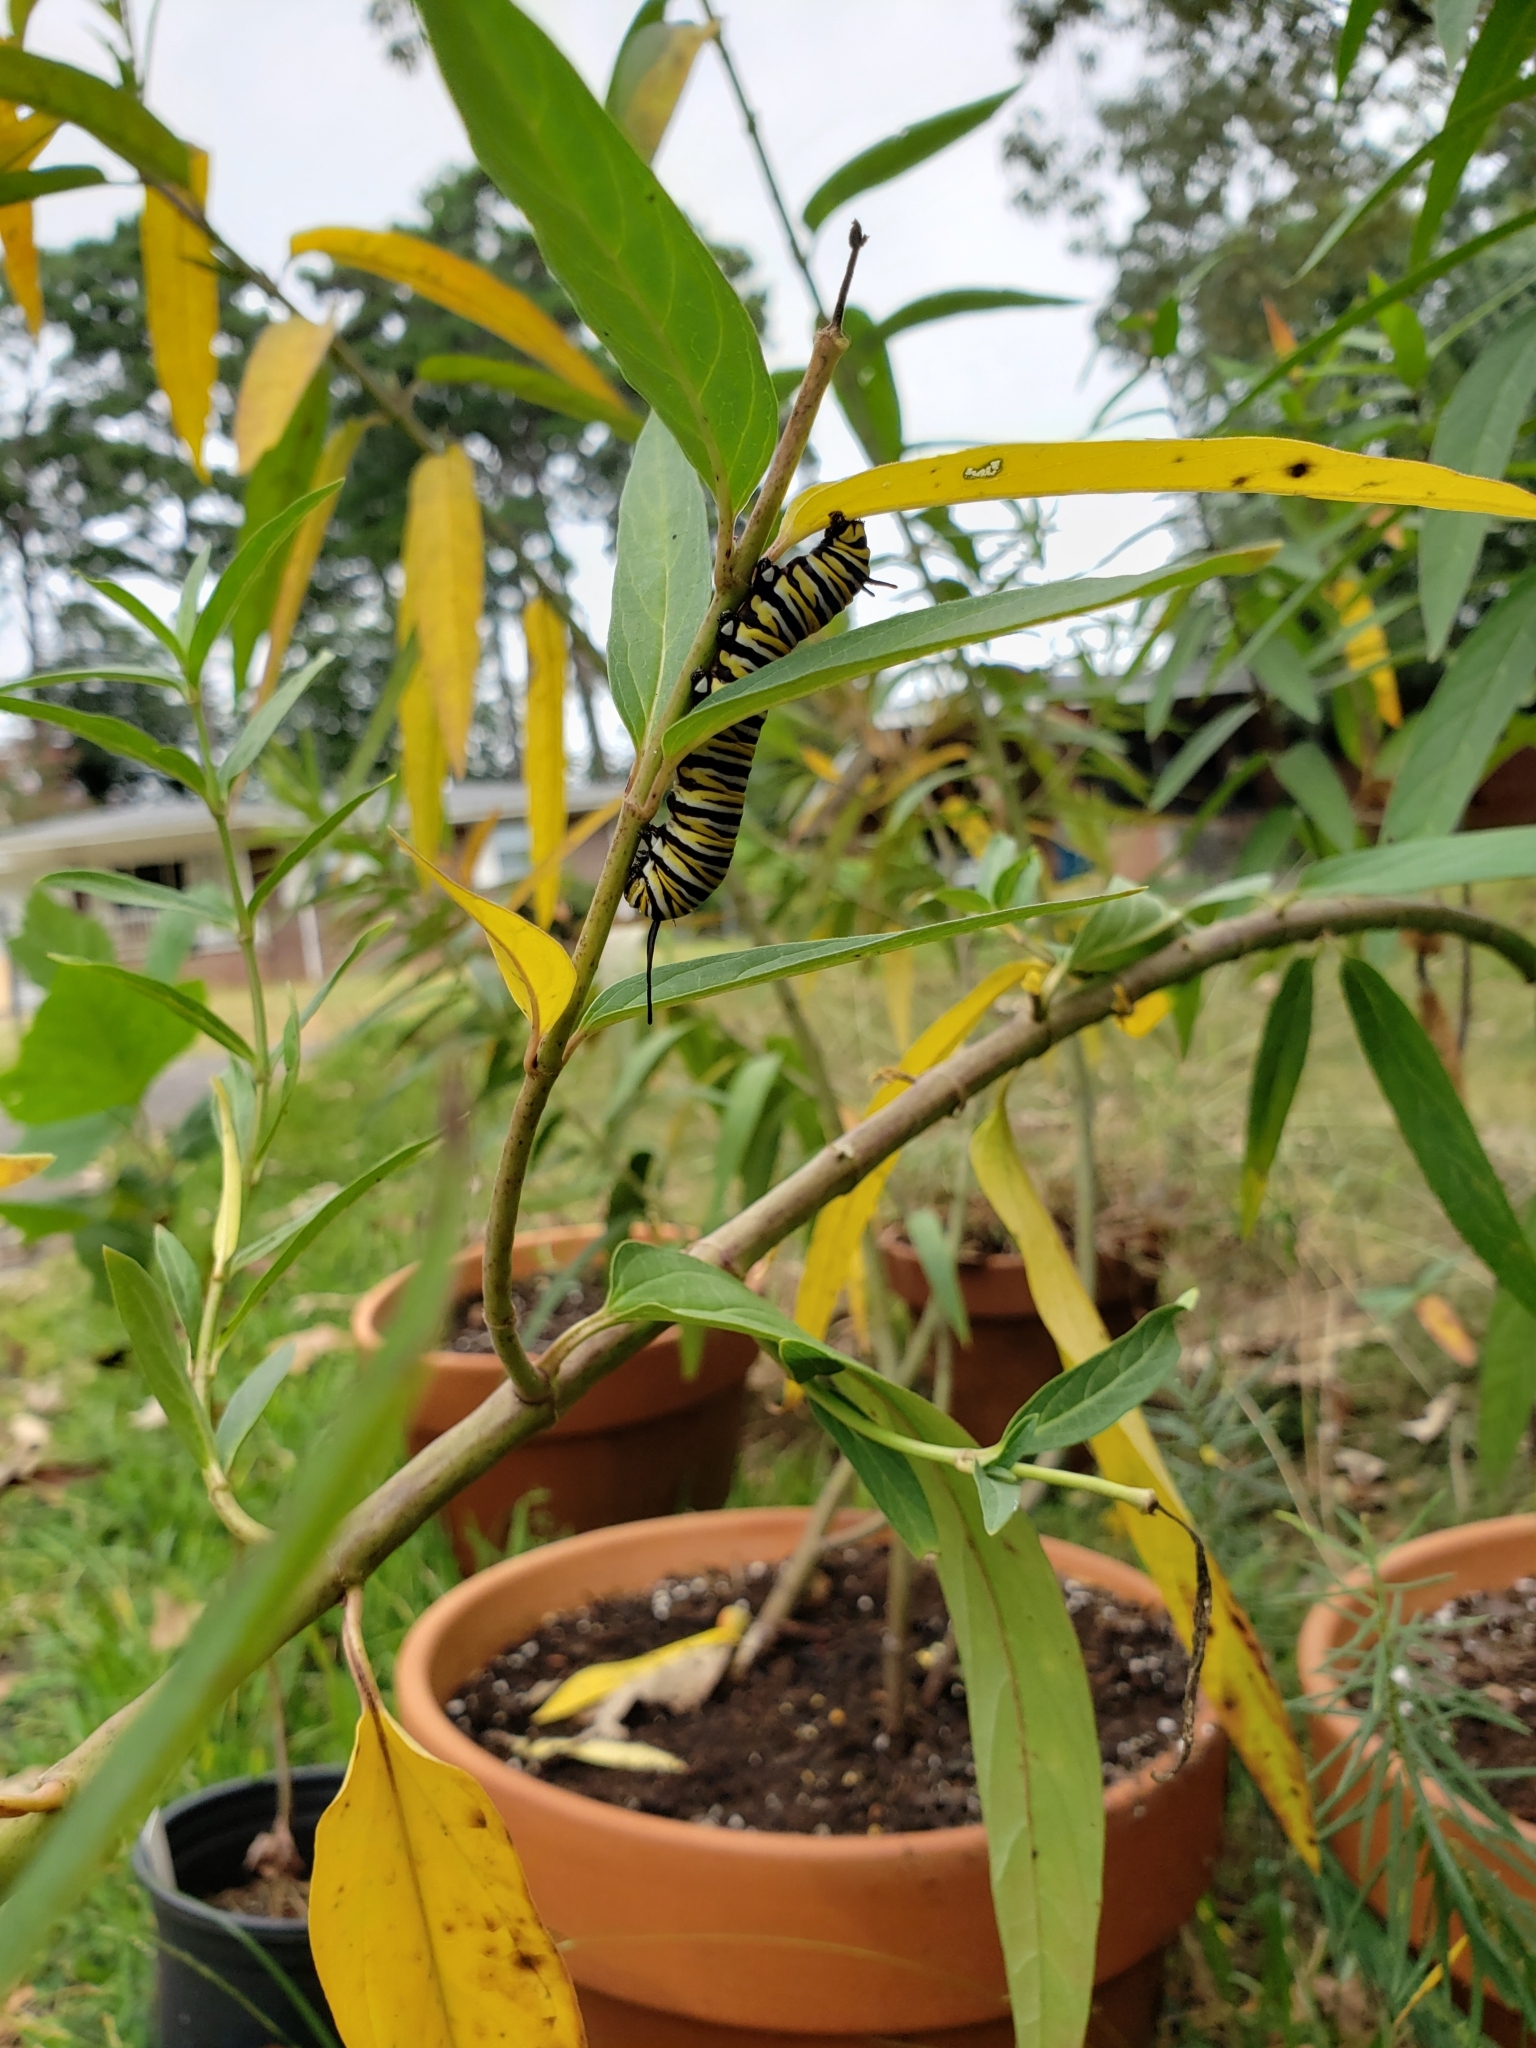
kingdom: Animalia
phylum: Arthropoda
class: Insecta
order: Lepidoptera
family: Nymphalidae
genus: Danaus
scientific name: Danaus plexippus
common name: Monarch
